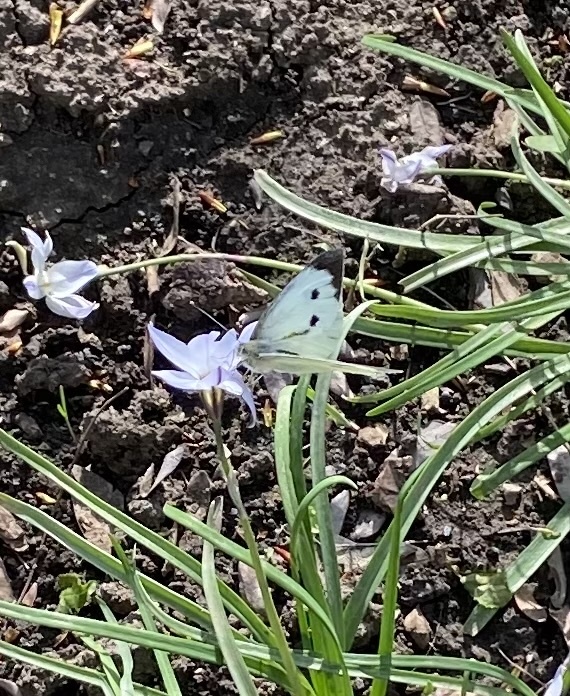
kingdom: Animalia
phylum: Arthropoda
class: Insecta
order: Lepidoptera
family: Pieridae
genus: Pieris
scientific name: Pieris brassicae
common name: Large white
